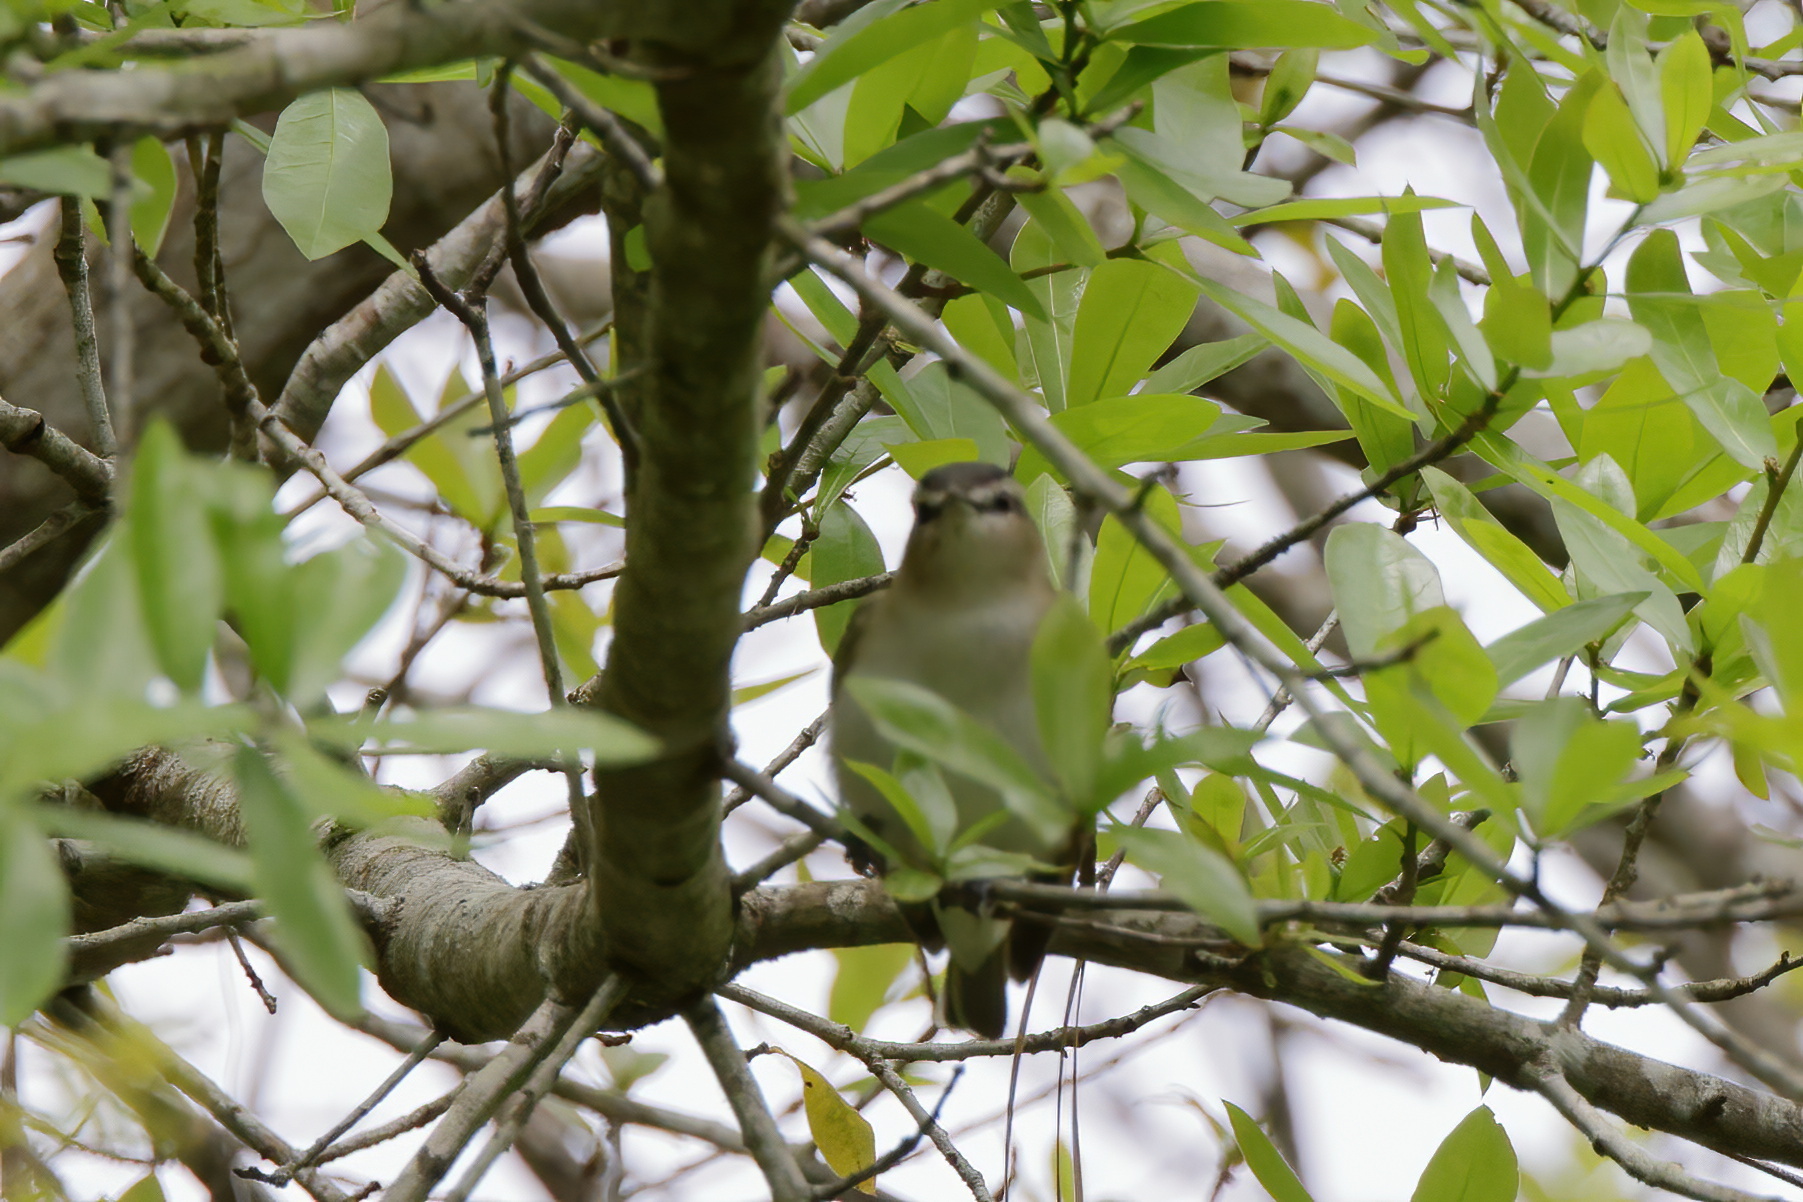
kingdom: Animalia
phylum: Chordata
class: Aves
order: Passeriformes
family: Vireonidae
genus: Vireo
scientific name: Vireo olivaceus
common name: Red-eyed vireo
